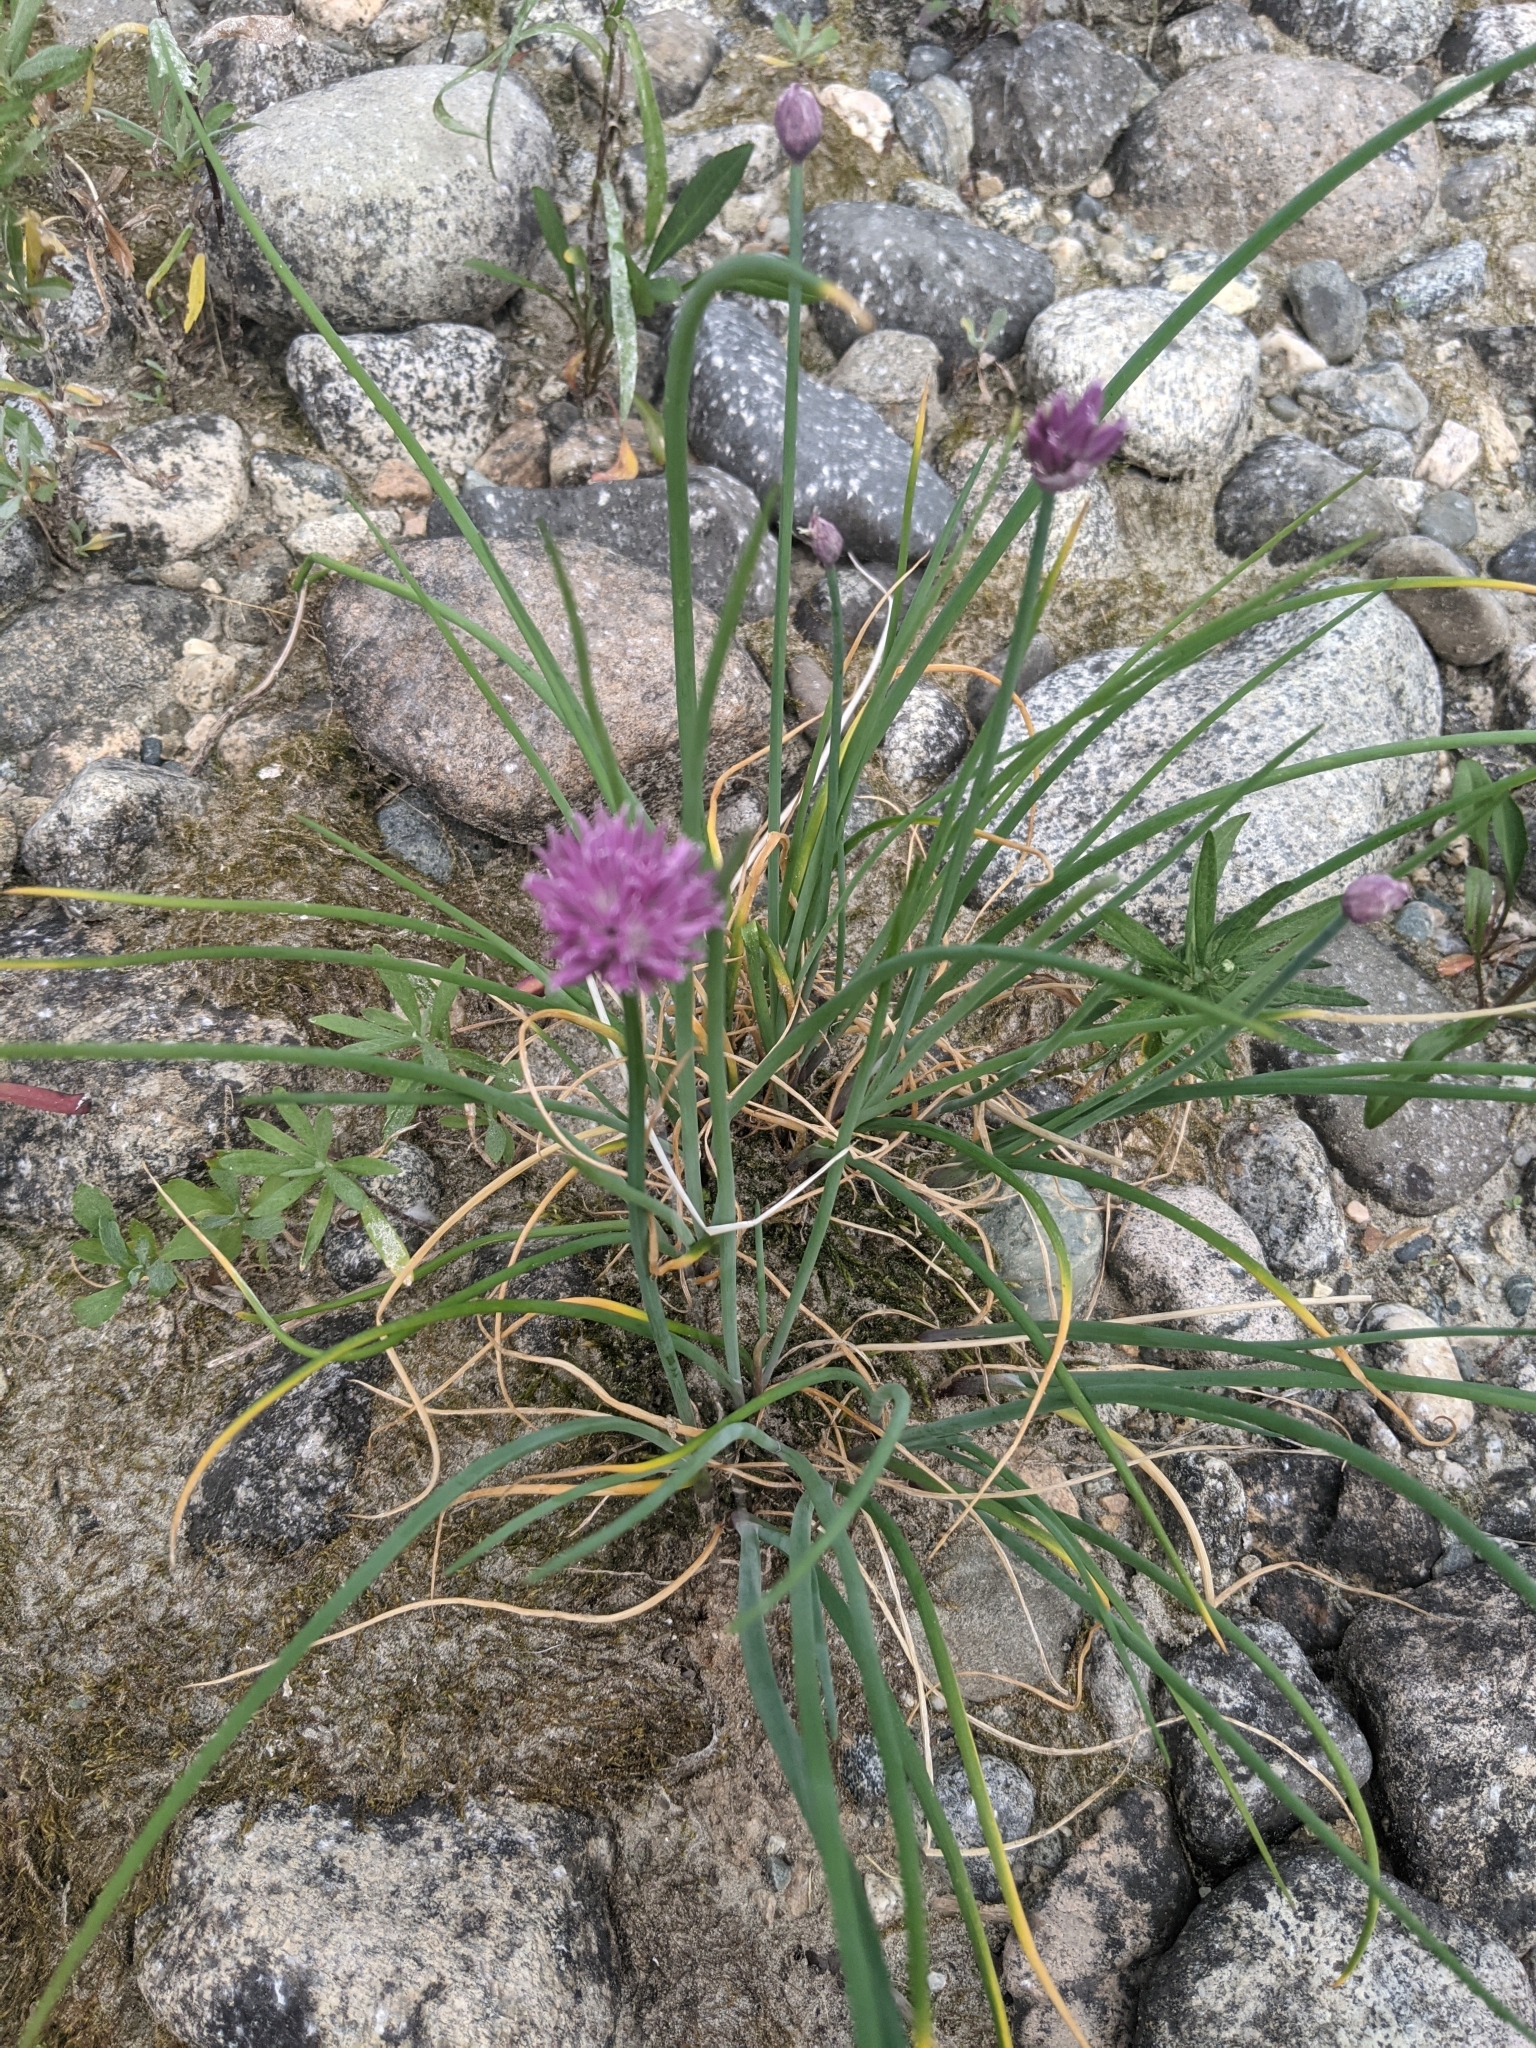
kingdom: Plantae
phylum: Tracheophyta
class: Liliopsida
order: Asparagales
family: Amaryllidaceae
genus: Allium
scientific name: Allium schoenoprasum
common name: Chives
